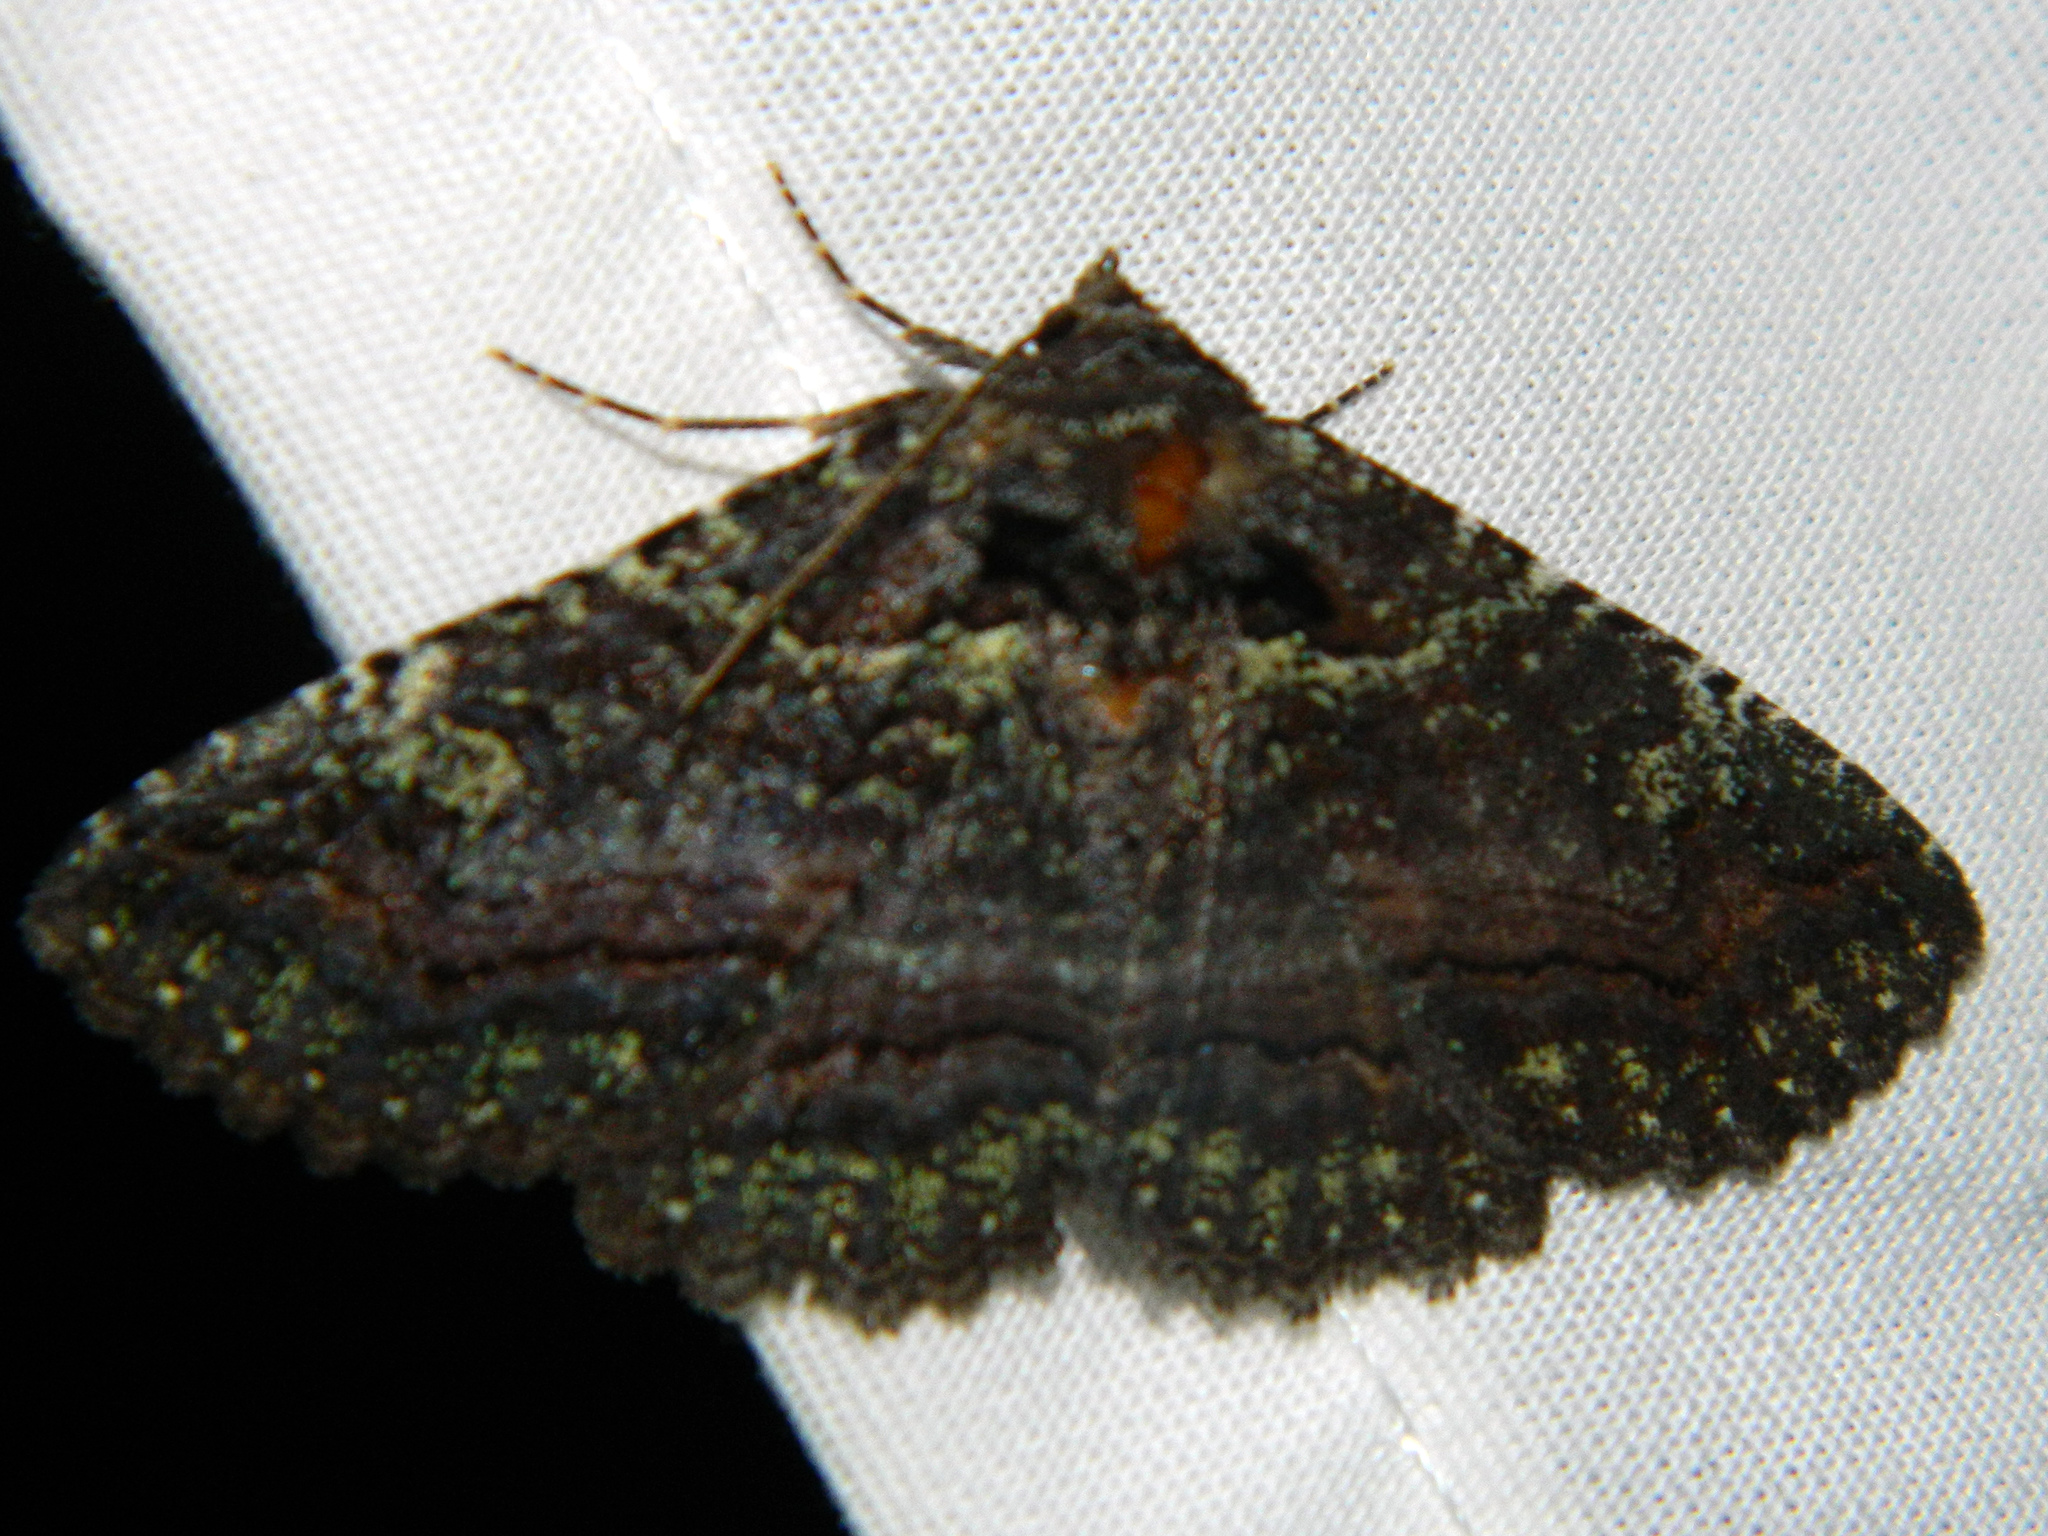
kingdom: Animalia
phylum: Arthropoda
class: Insecta
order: Lepidoptera
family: Erebidae
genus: Zale
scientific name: Zale aeruginosa
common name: Green-dusted zale moth
